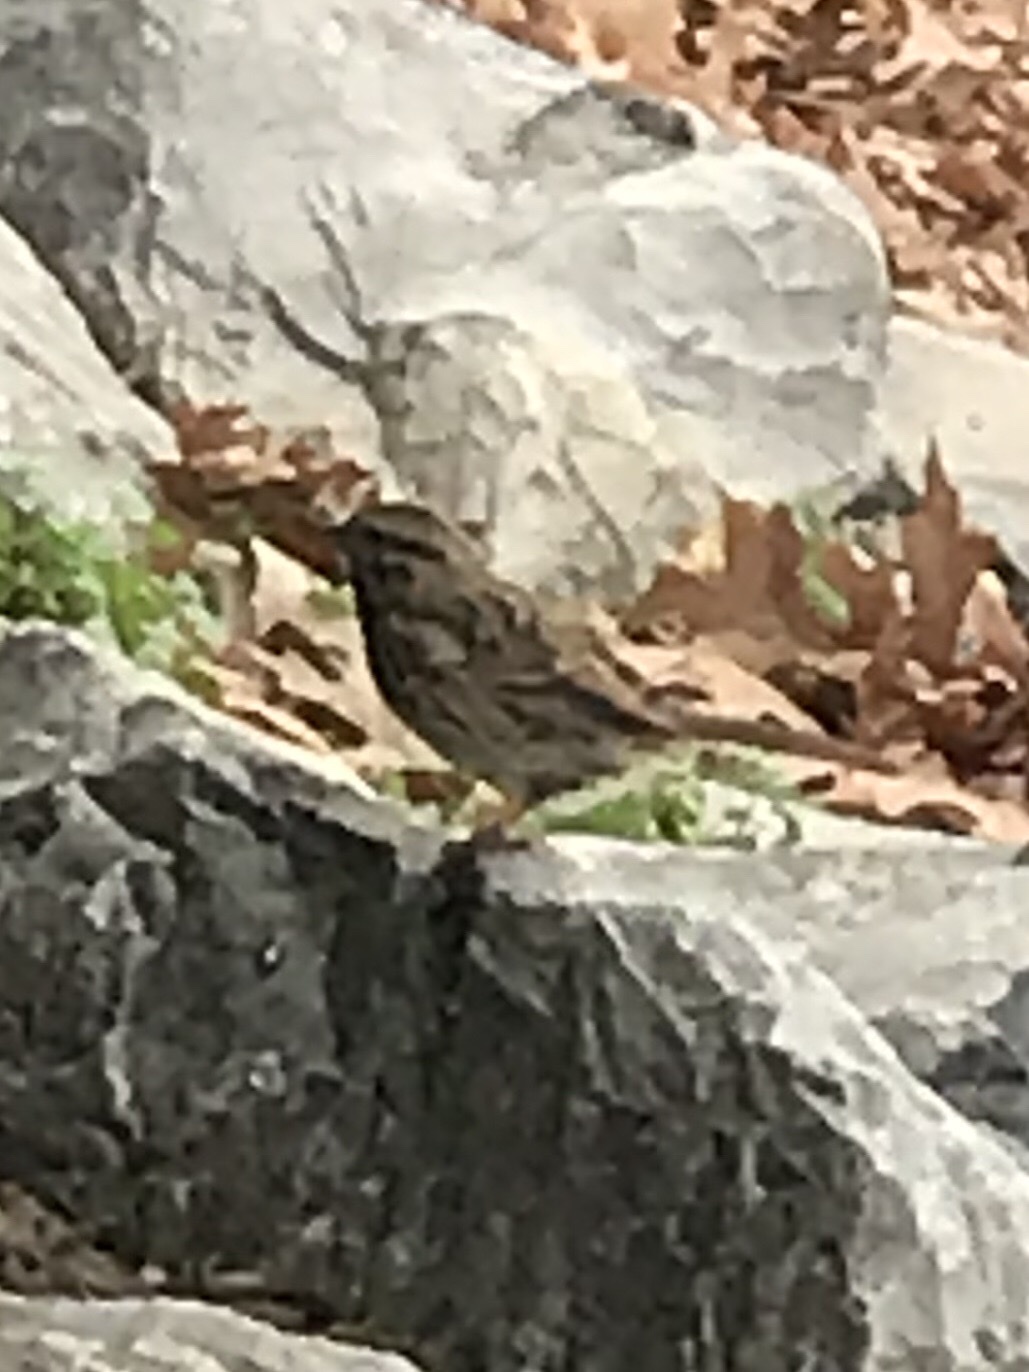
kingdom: Animalia
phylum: Chordata
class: Aves
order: Passeriformes
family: Passerellidae
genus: Melospiza
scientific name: Melospiza melodia
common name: Song sparrow
